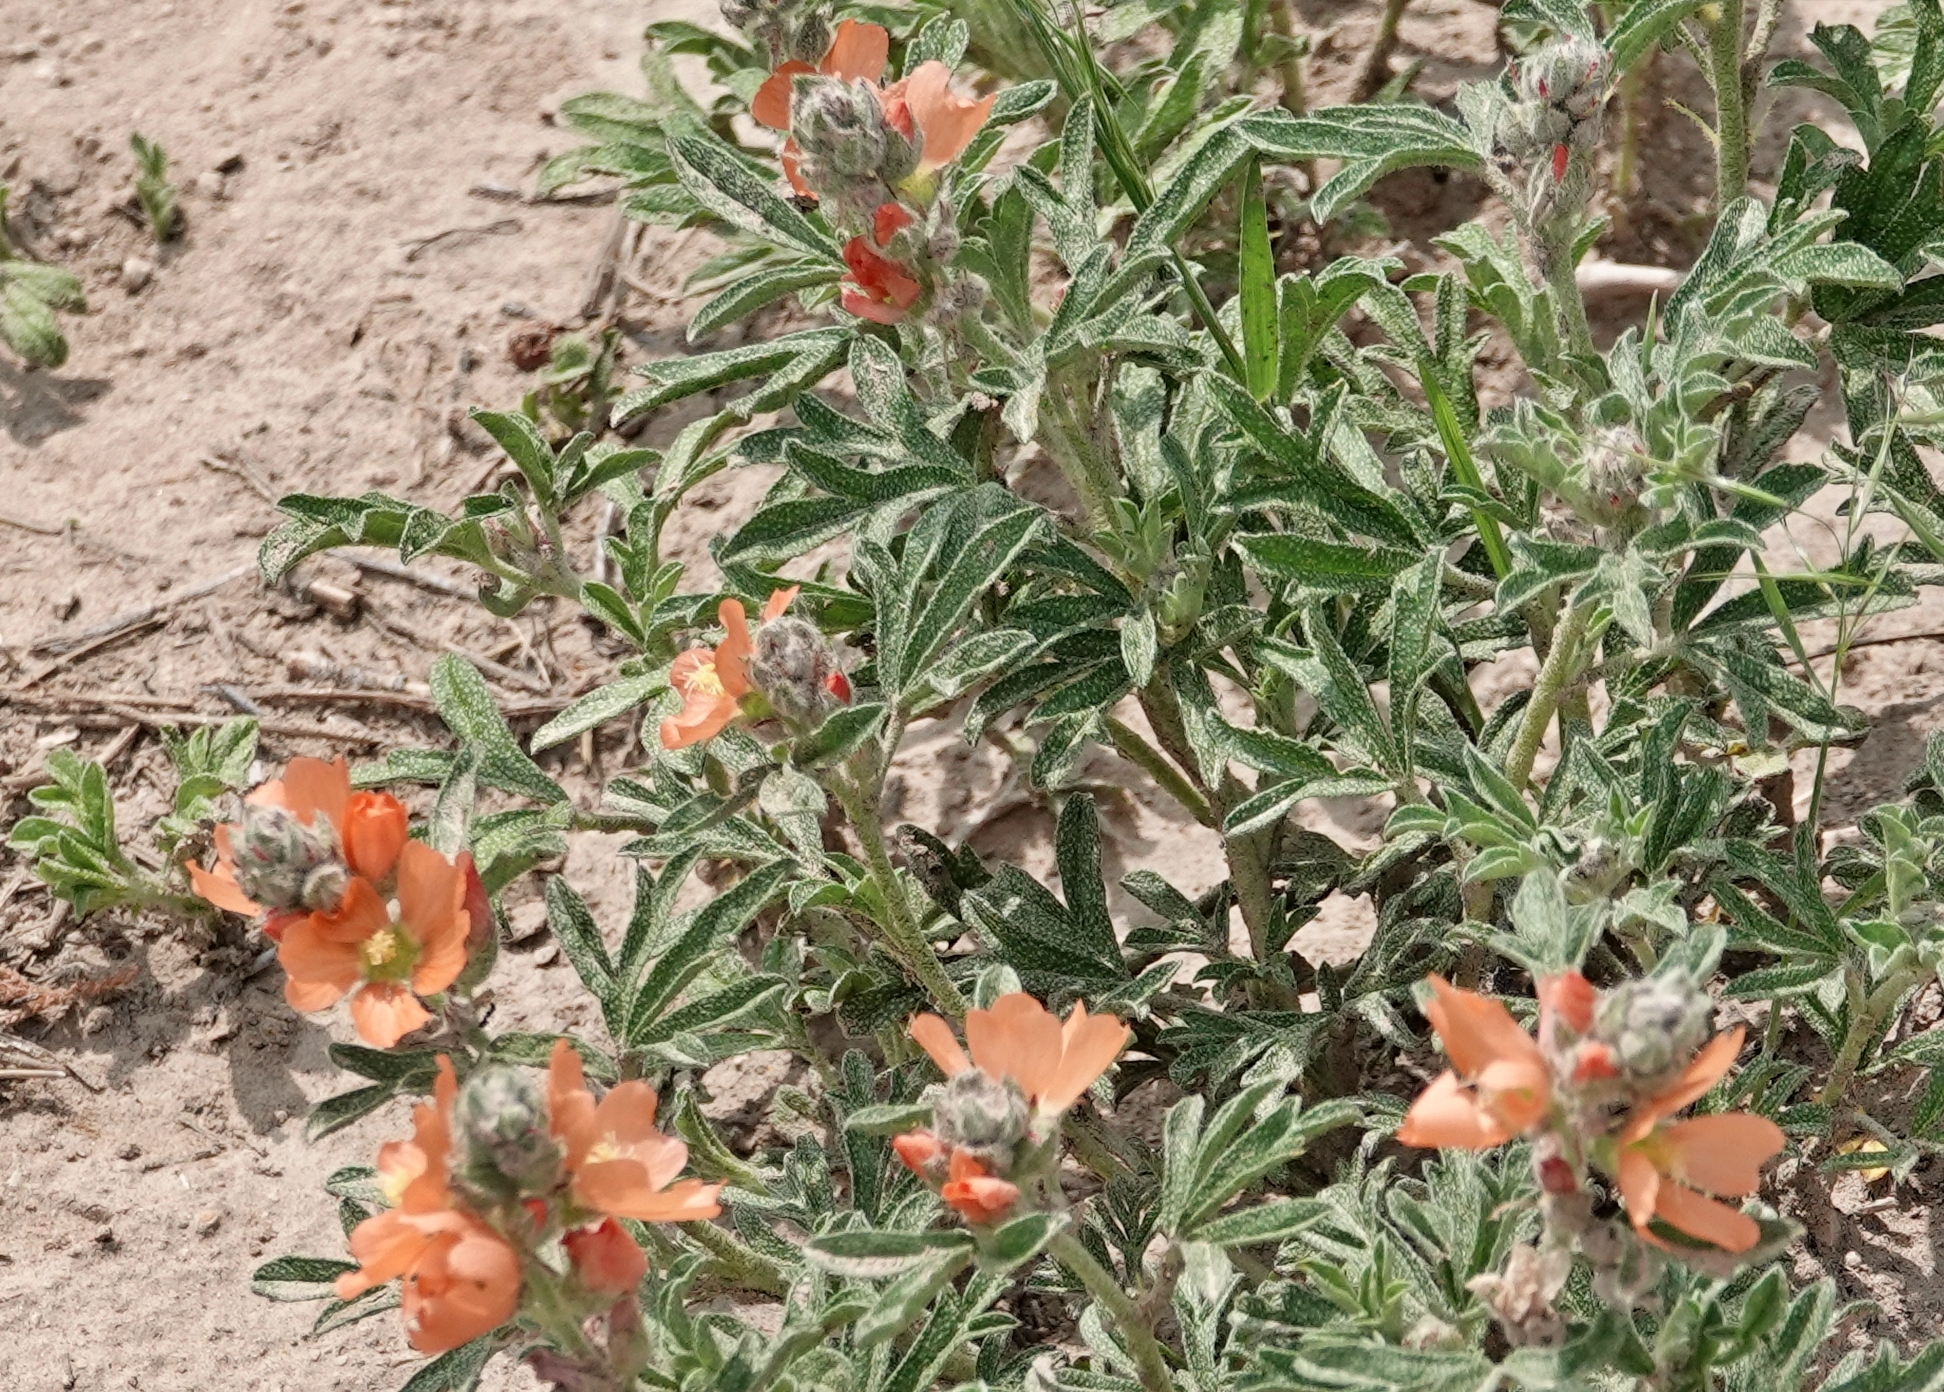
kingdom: Plantae
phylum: Tracheophyta
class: Magnoliopsida
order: Malvales
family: Malvaceae
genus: Sphaeralcea
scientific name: Sphaeralcea coccinea
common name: Moss-rose
